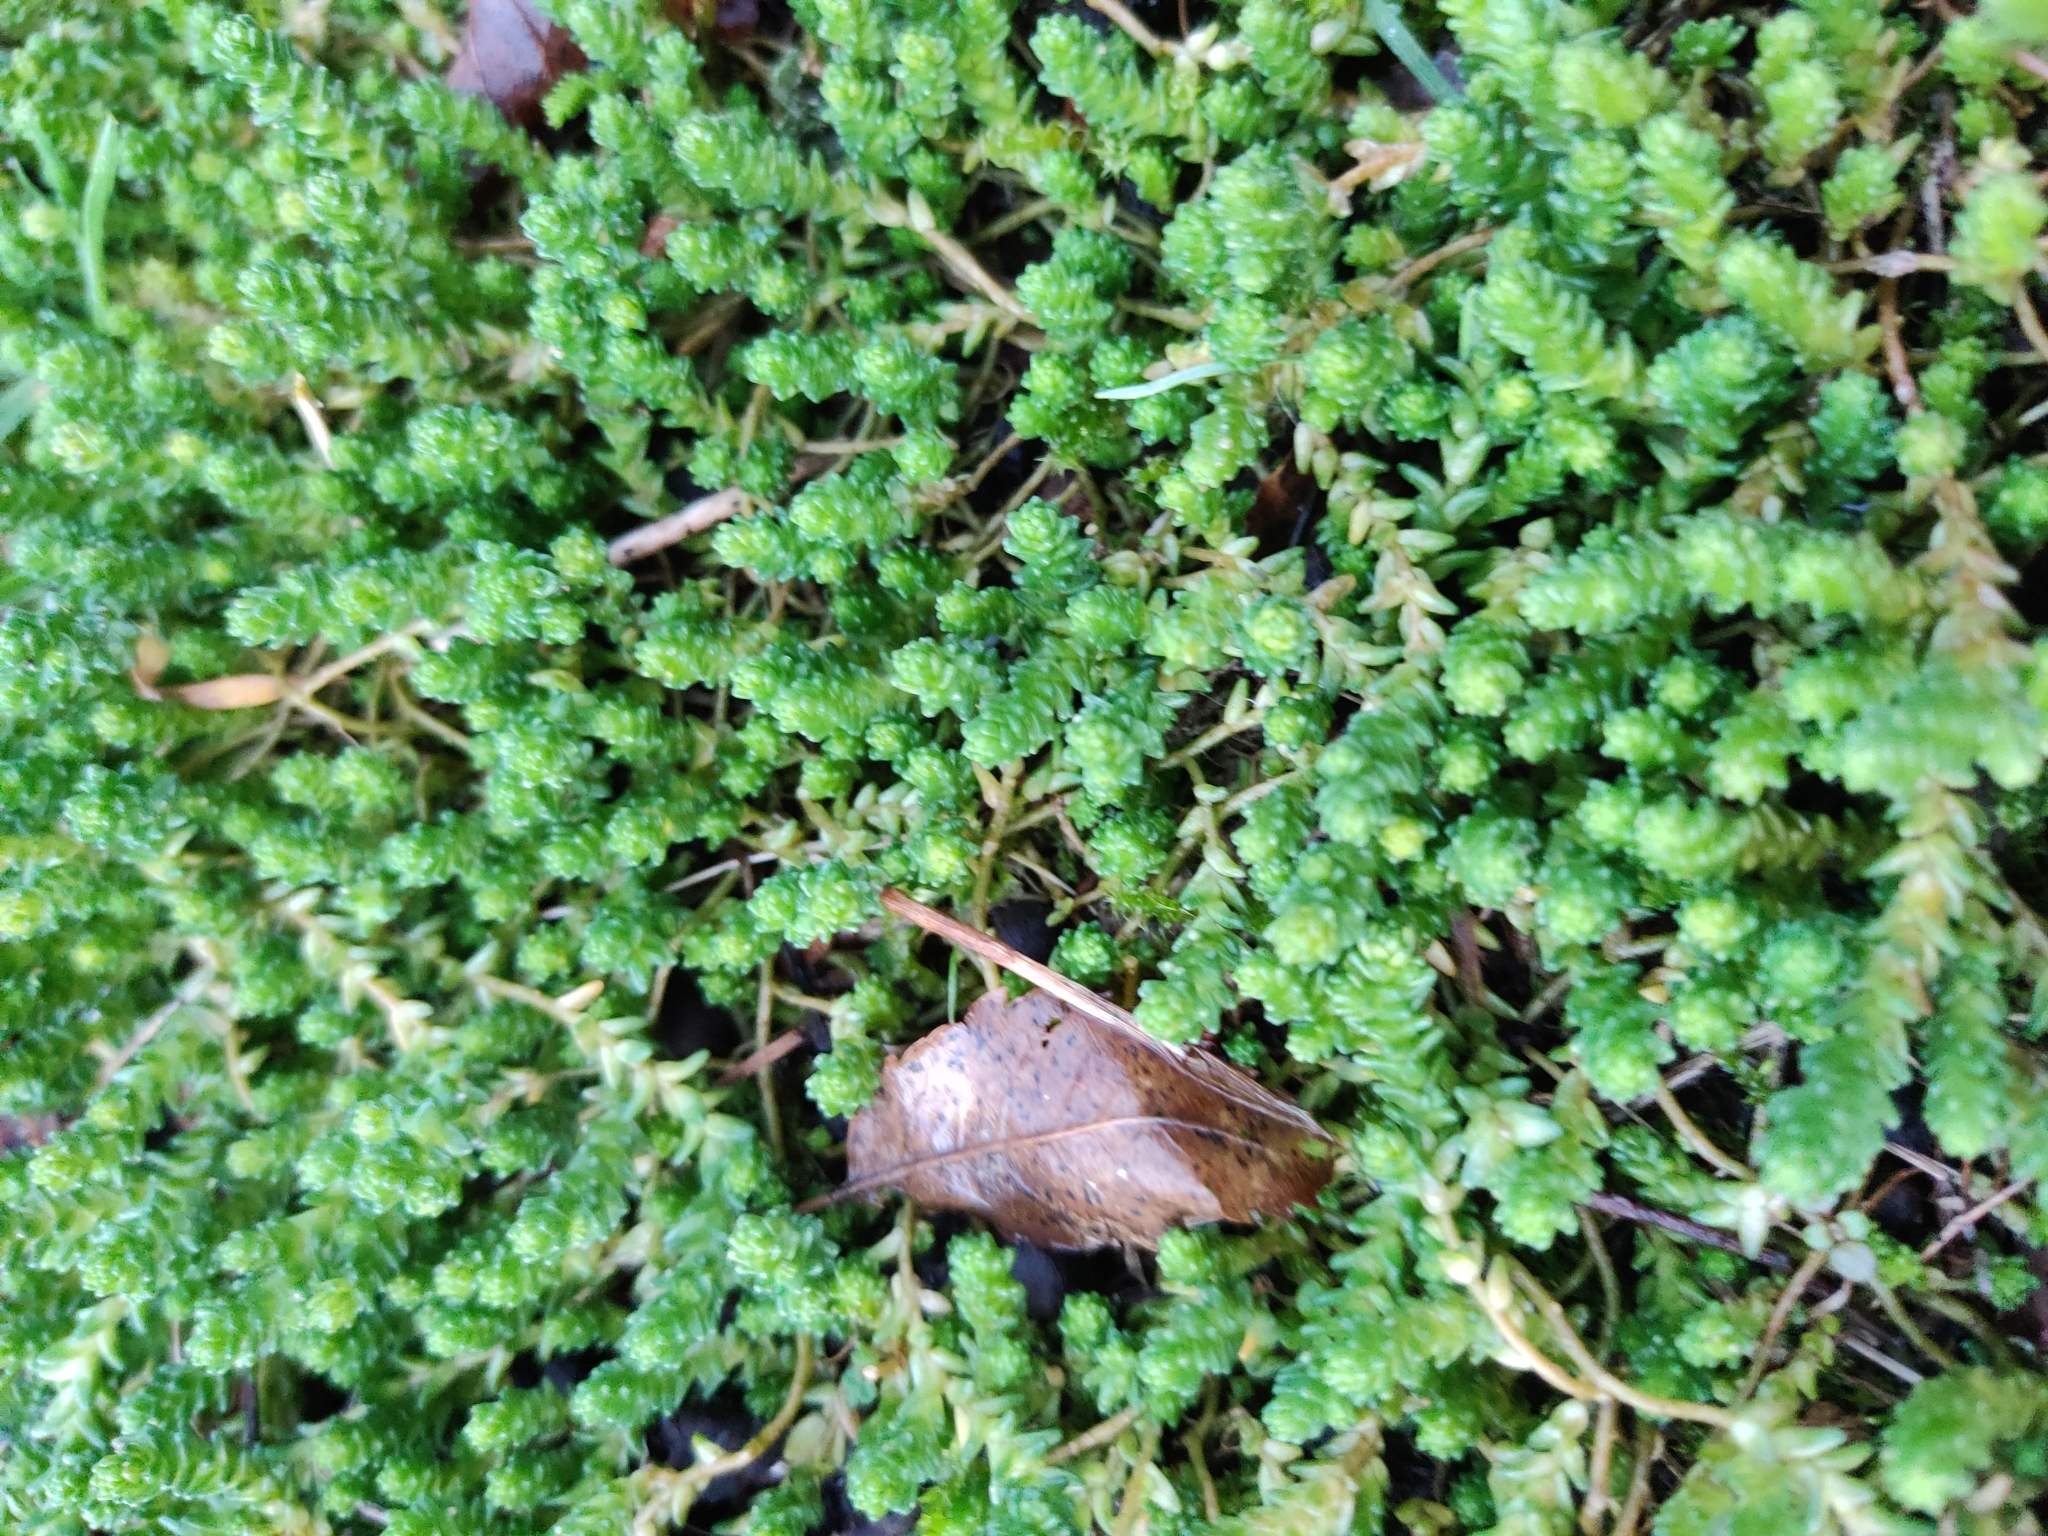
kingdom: Plantae
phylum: Tracheophyta
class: Magnoliopsida
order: Saxifragales
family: Crassulaceae
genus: Sedum
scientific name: Sedum acre
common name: Biting stonecrop
